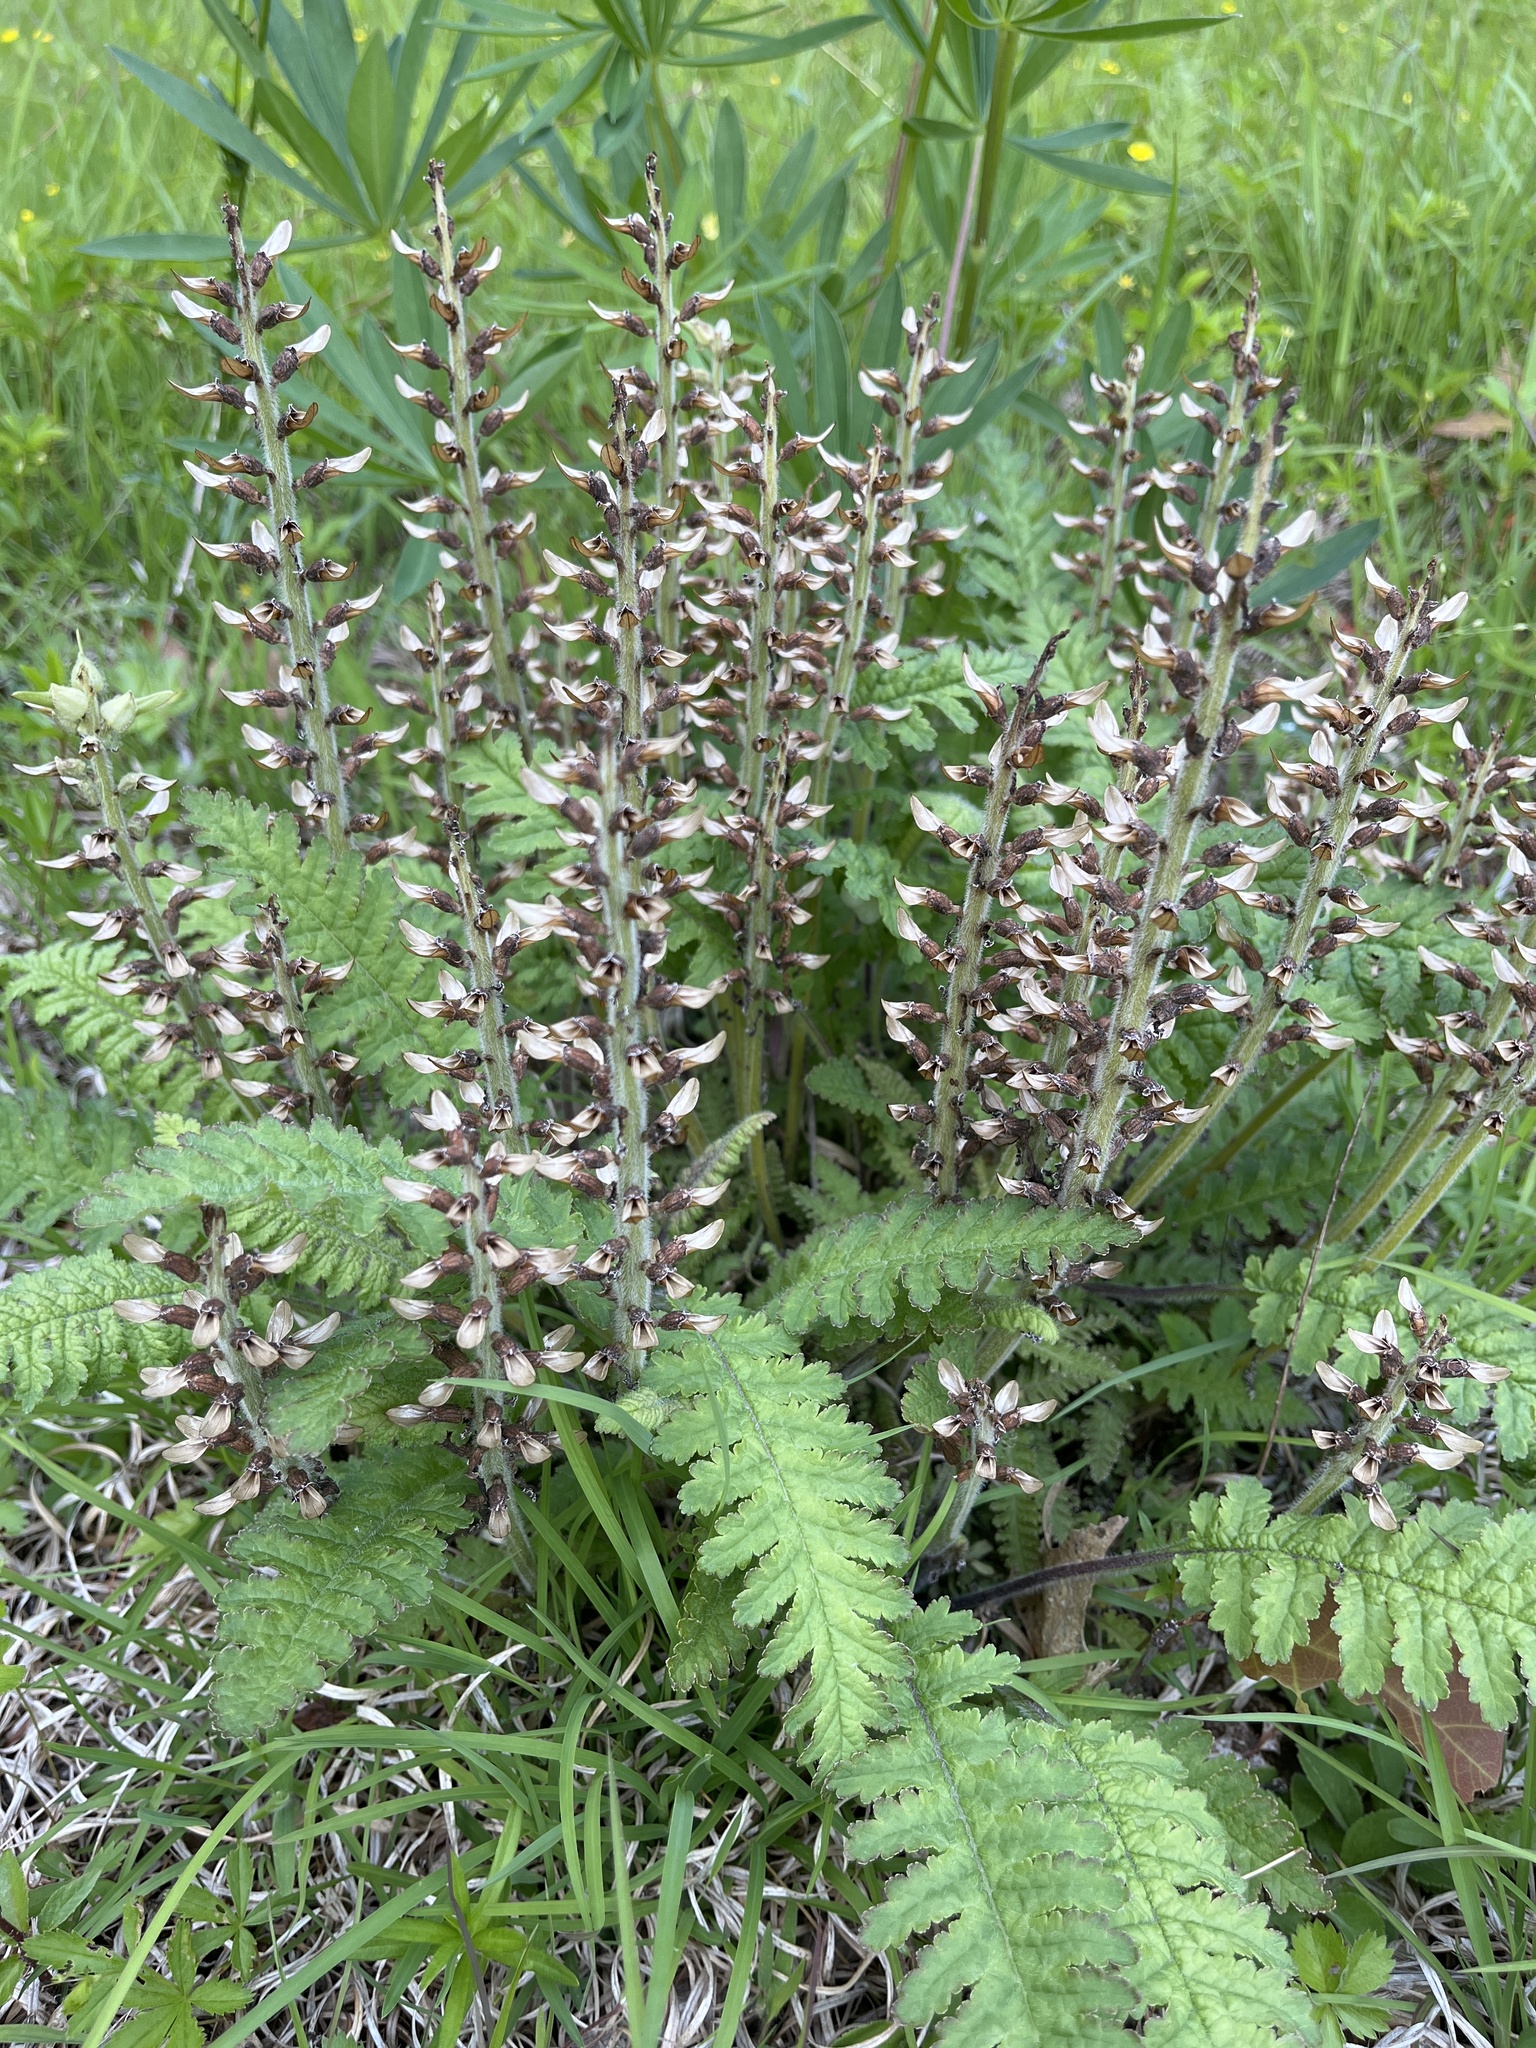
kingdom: Plantae
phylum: Tracheophyta
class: Magnoliopsida
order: Lamiales
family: Orobanchaceae
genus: Pedicularis
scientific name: Pedicularis canadensis
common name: Early lousewort
